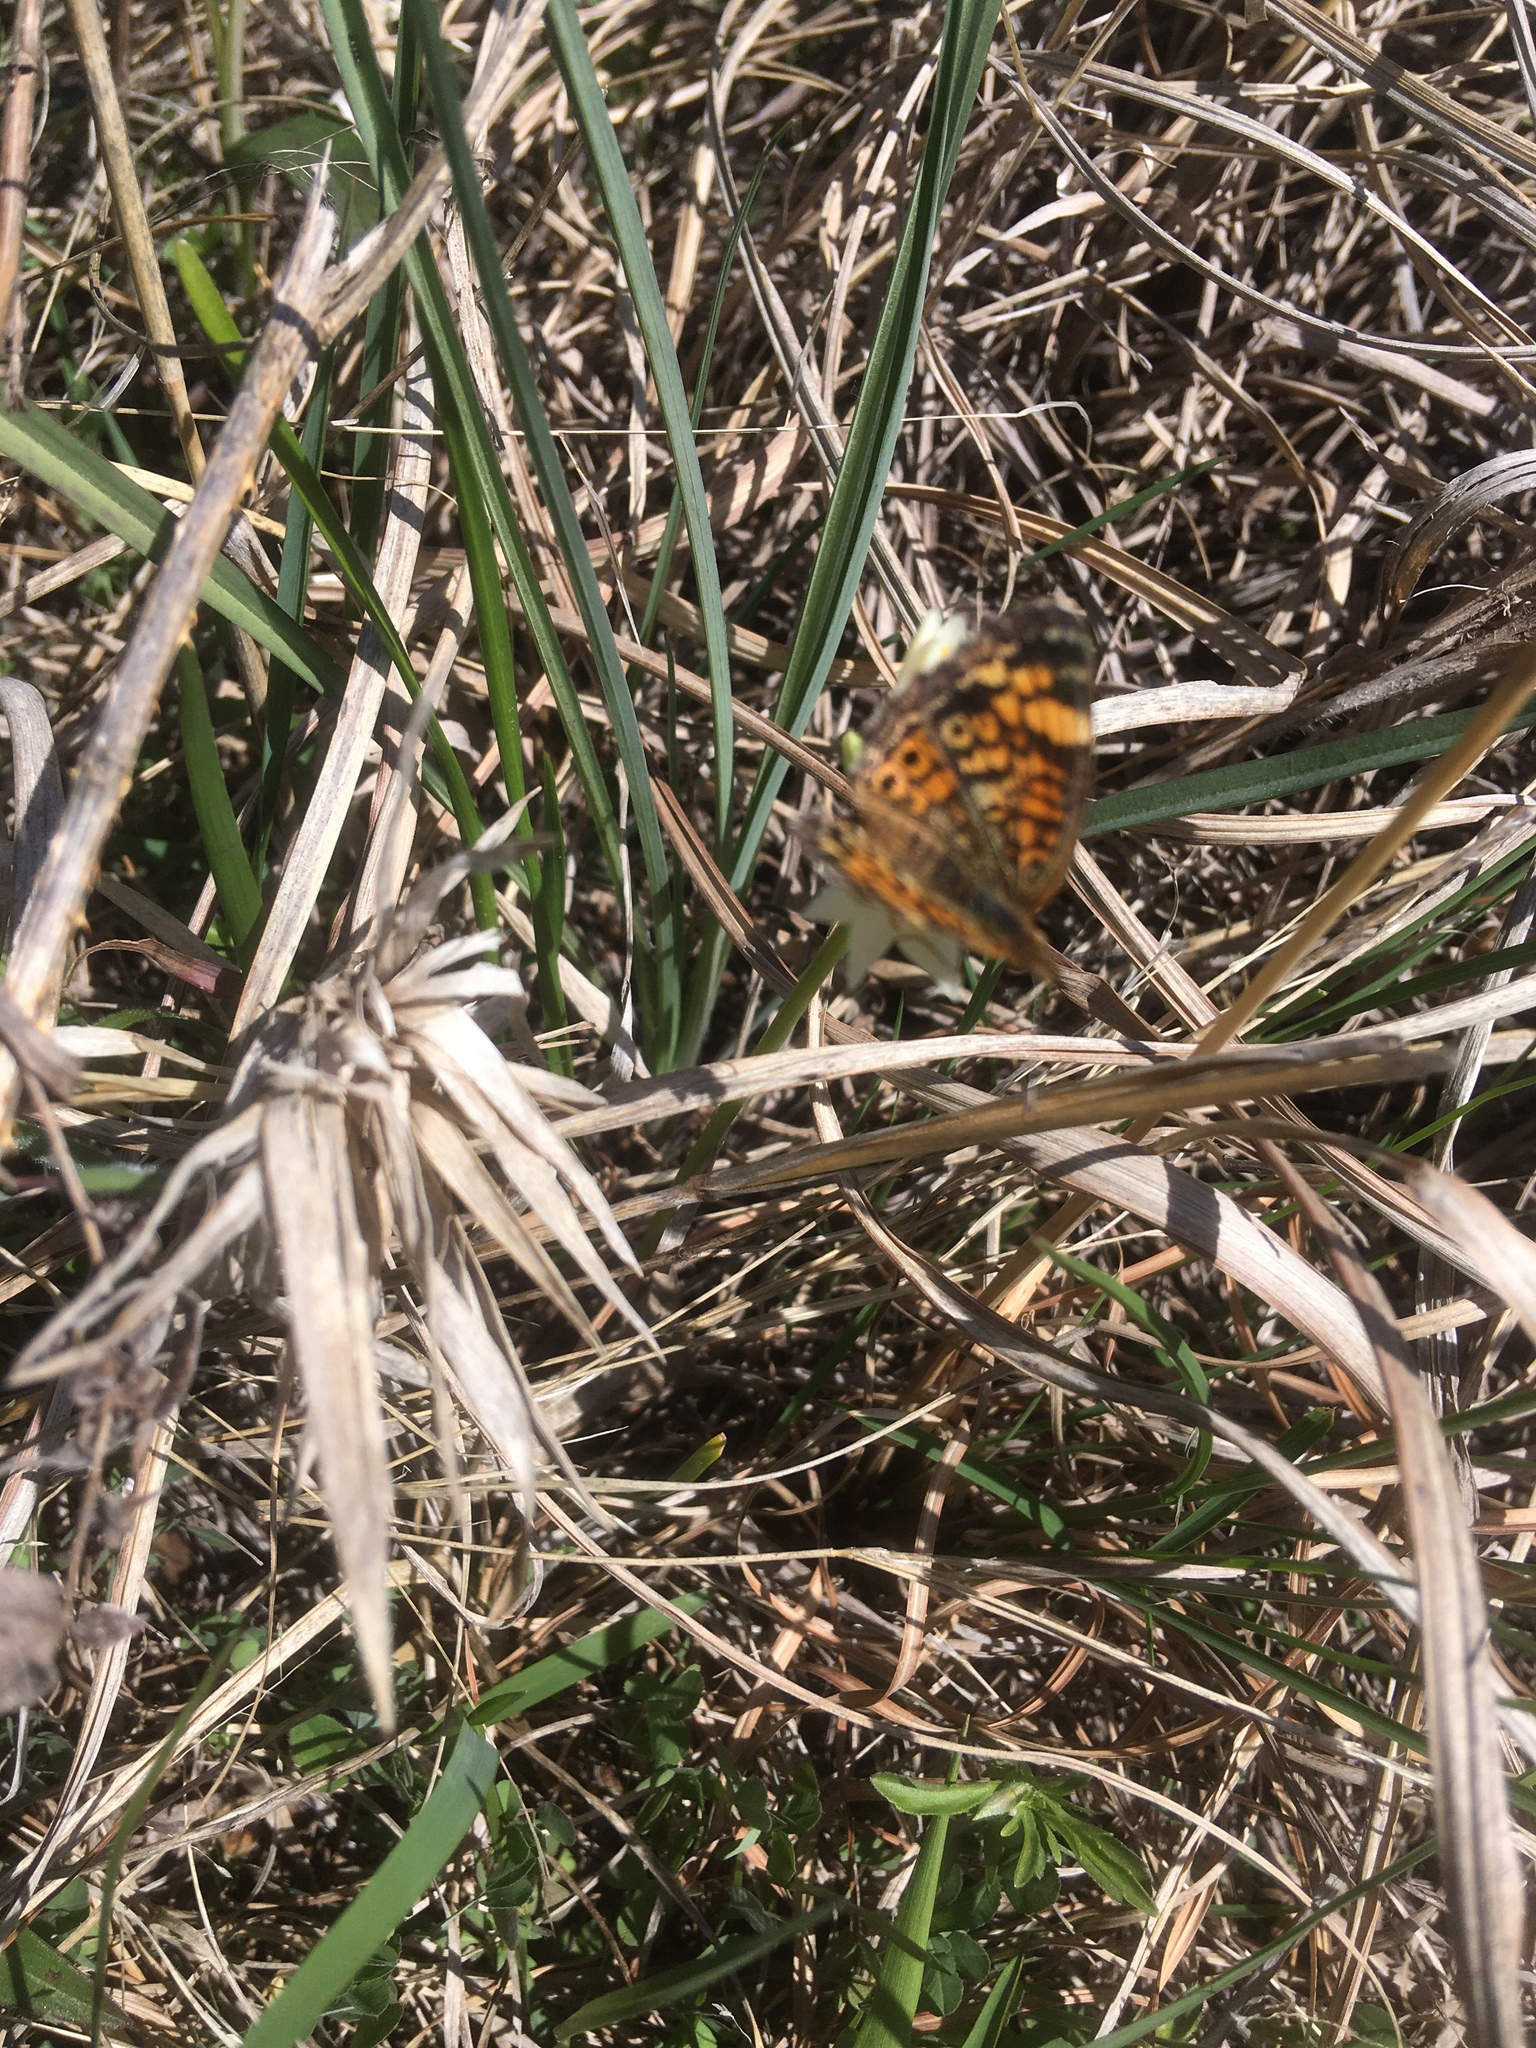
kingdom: Animalia
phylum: Arthropoda
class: Insecta
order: Lepidoptera
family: Nymphalidae
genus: Phyciodes
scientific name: Phyciodes tharos
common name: Pearl crescent
